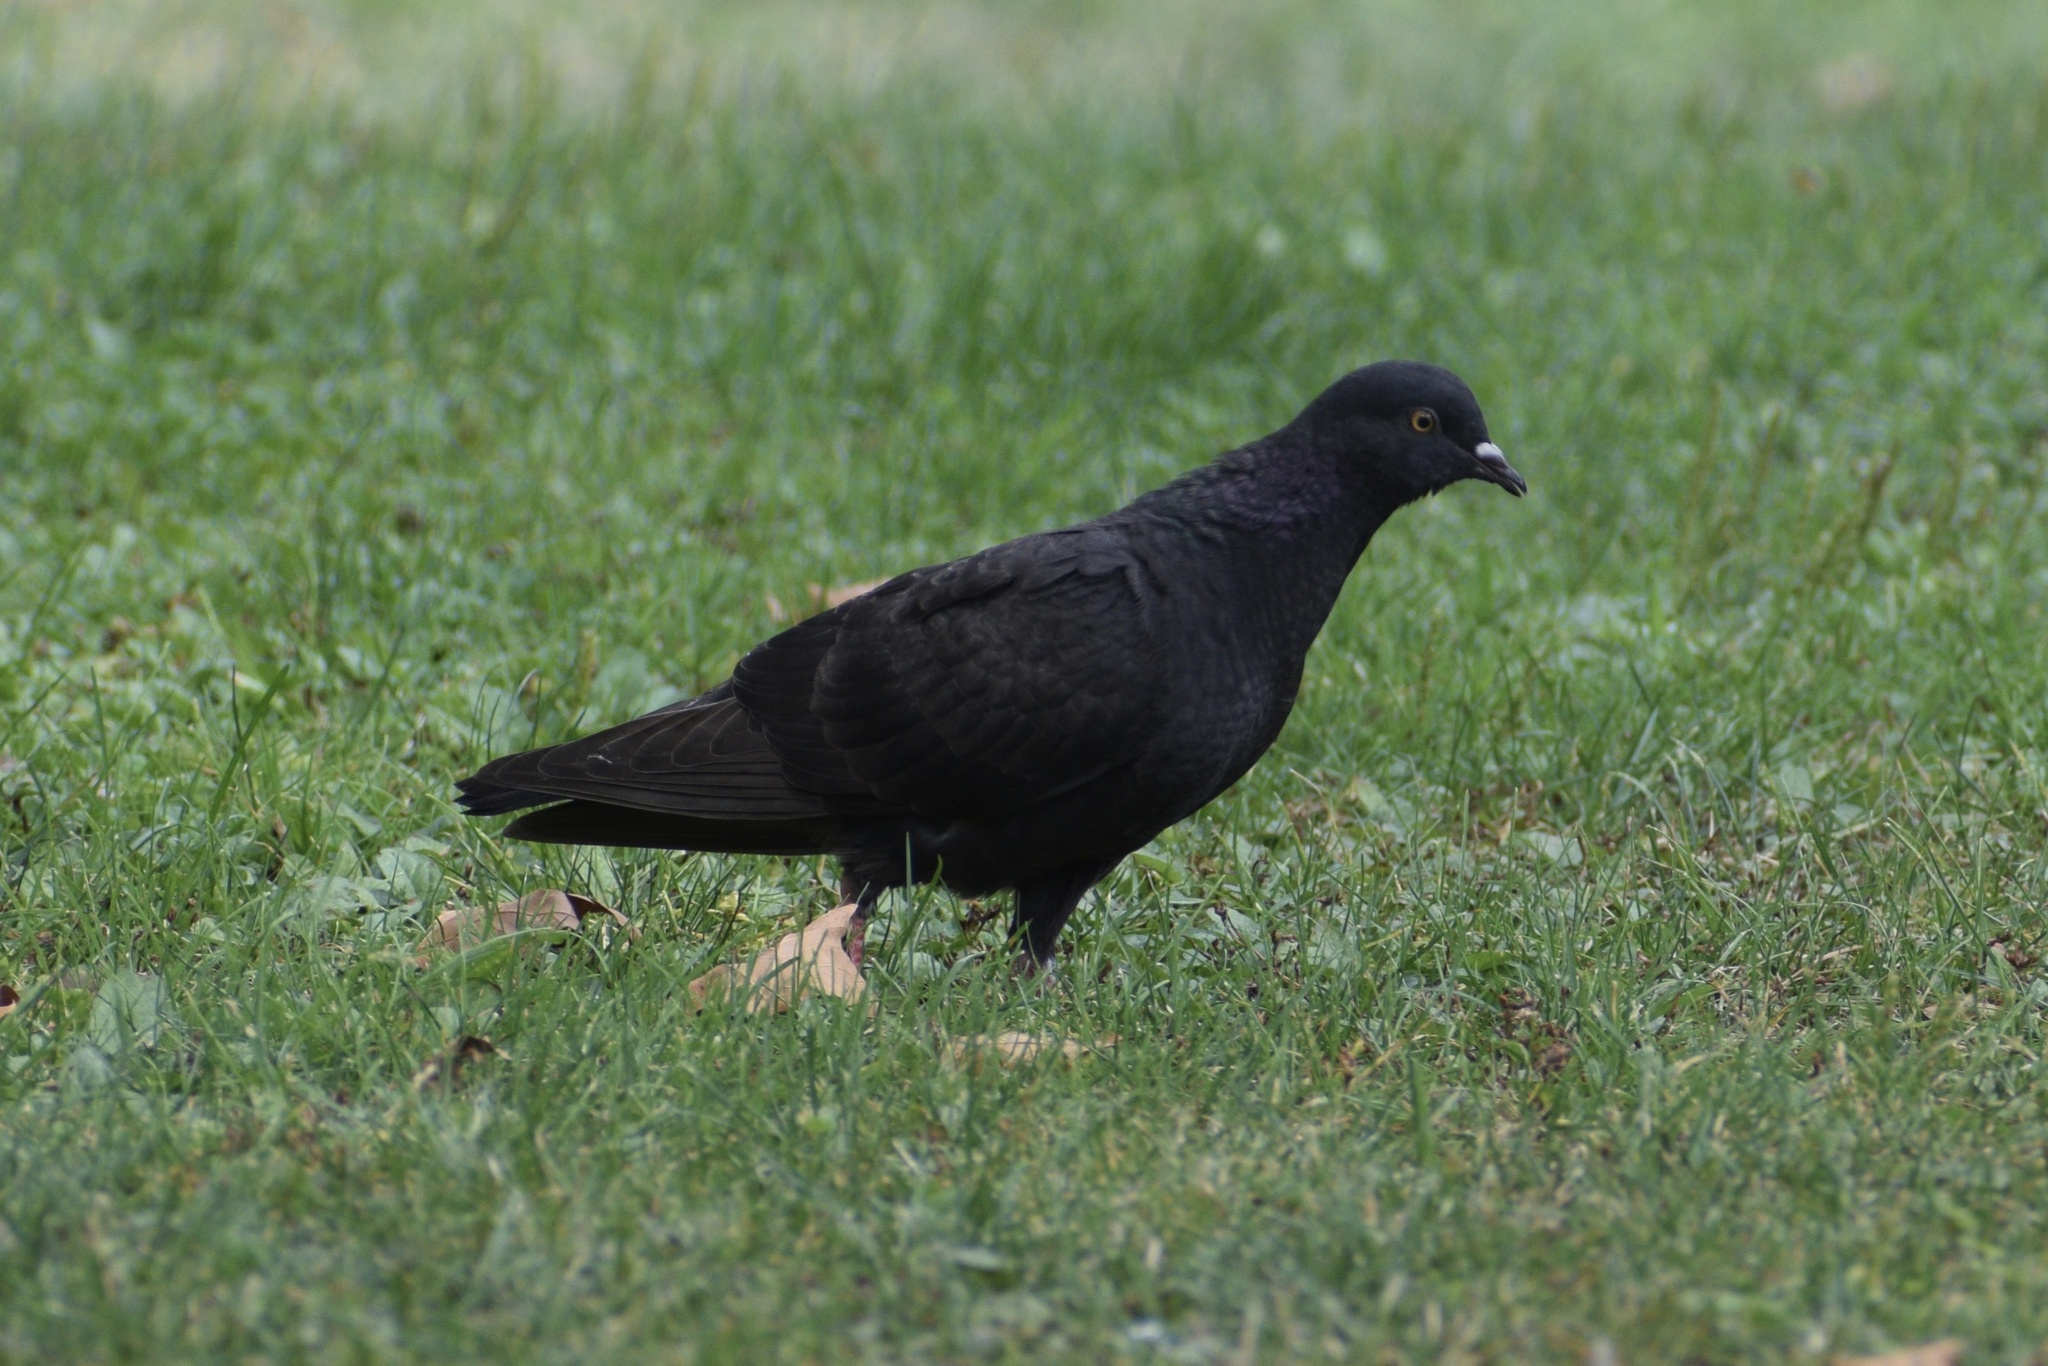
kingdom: Animalia
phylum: Chordata
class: Aves
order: Columbiformes
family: Columbidae
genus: Columba
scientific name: Columba livia
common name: Rock pigeon
